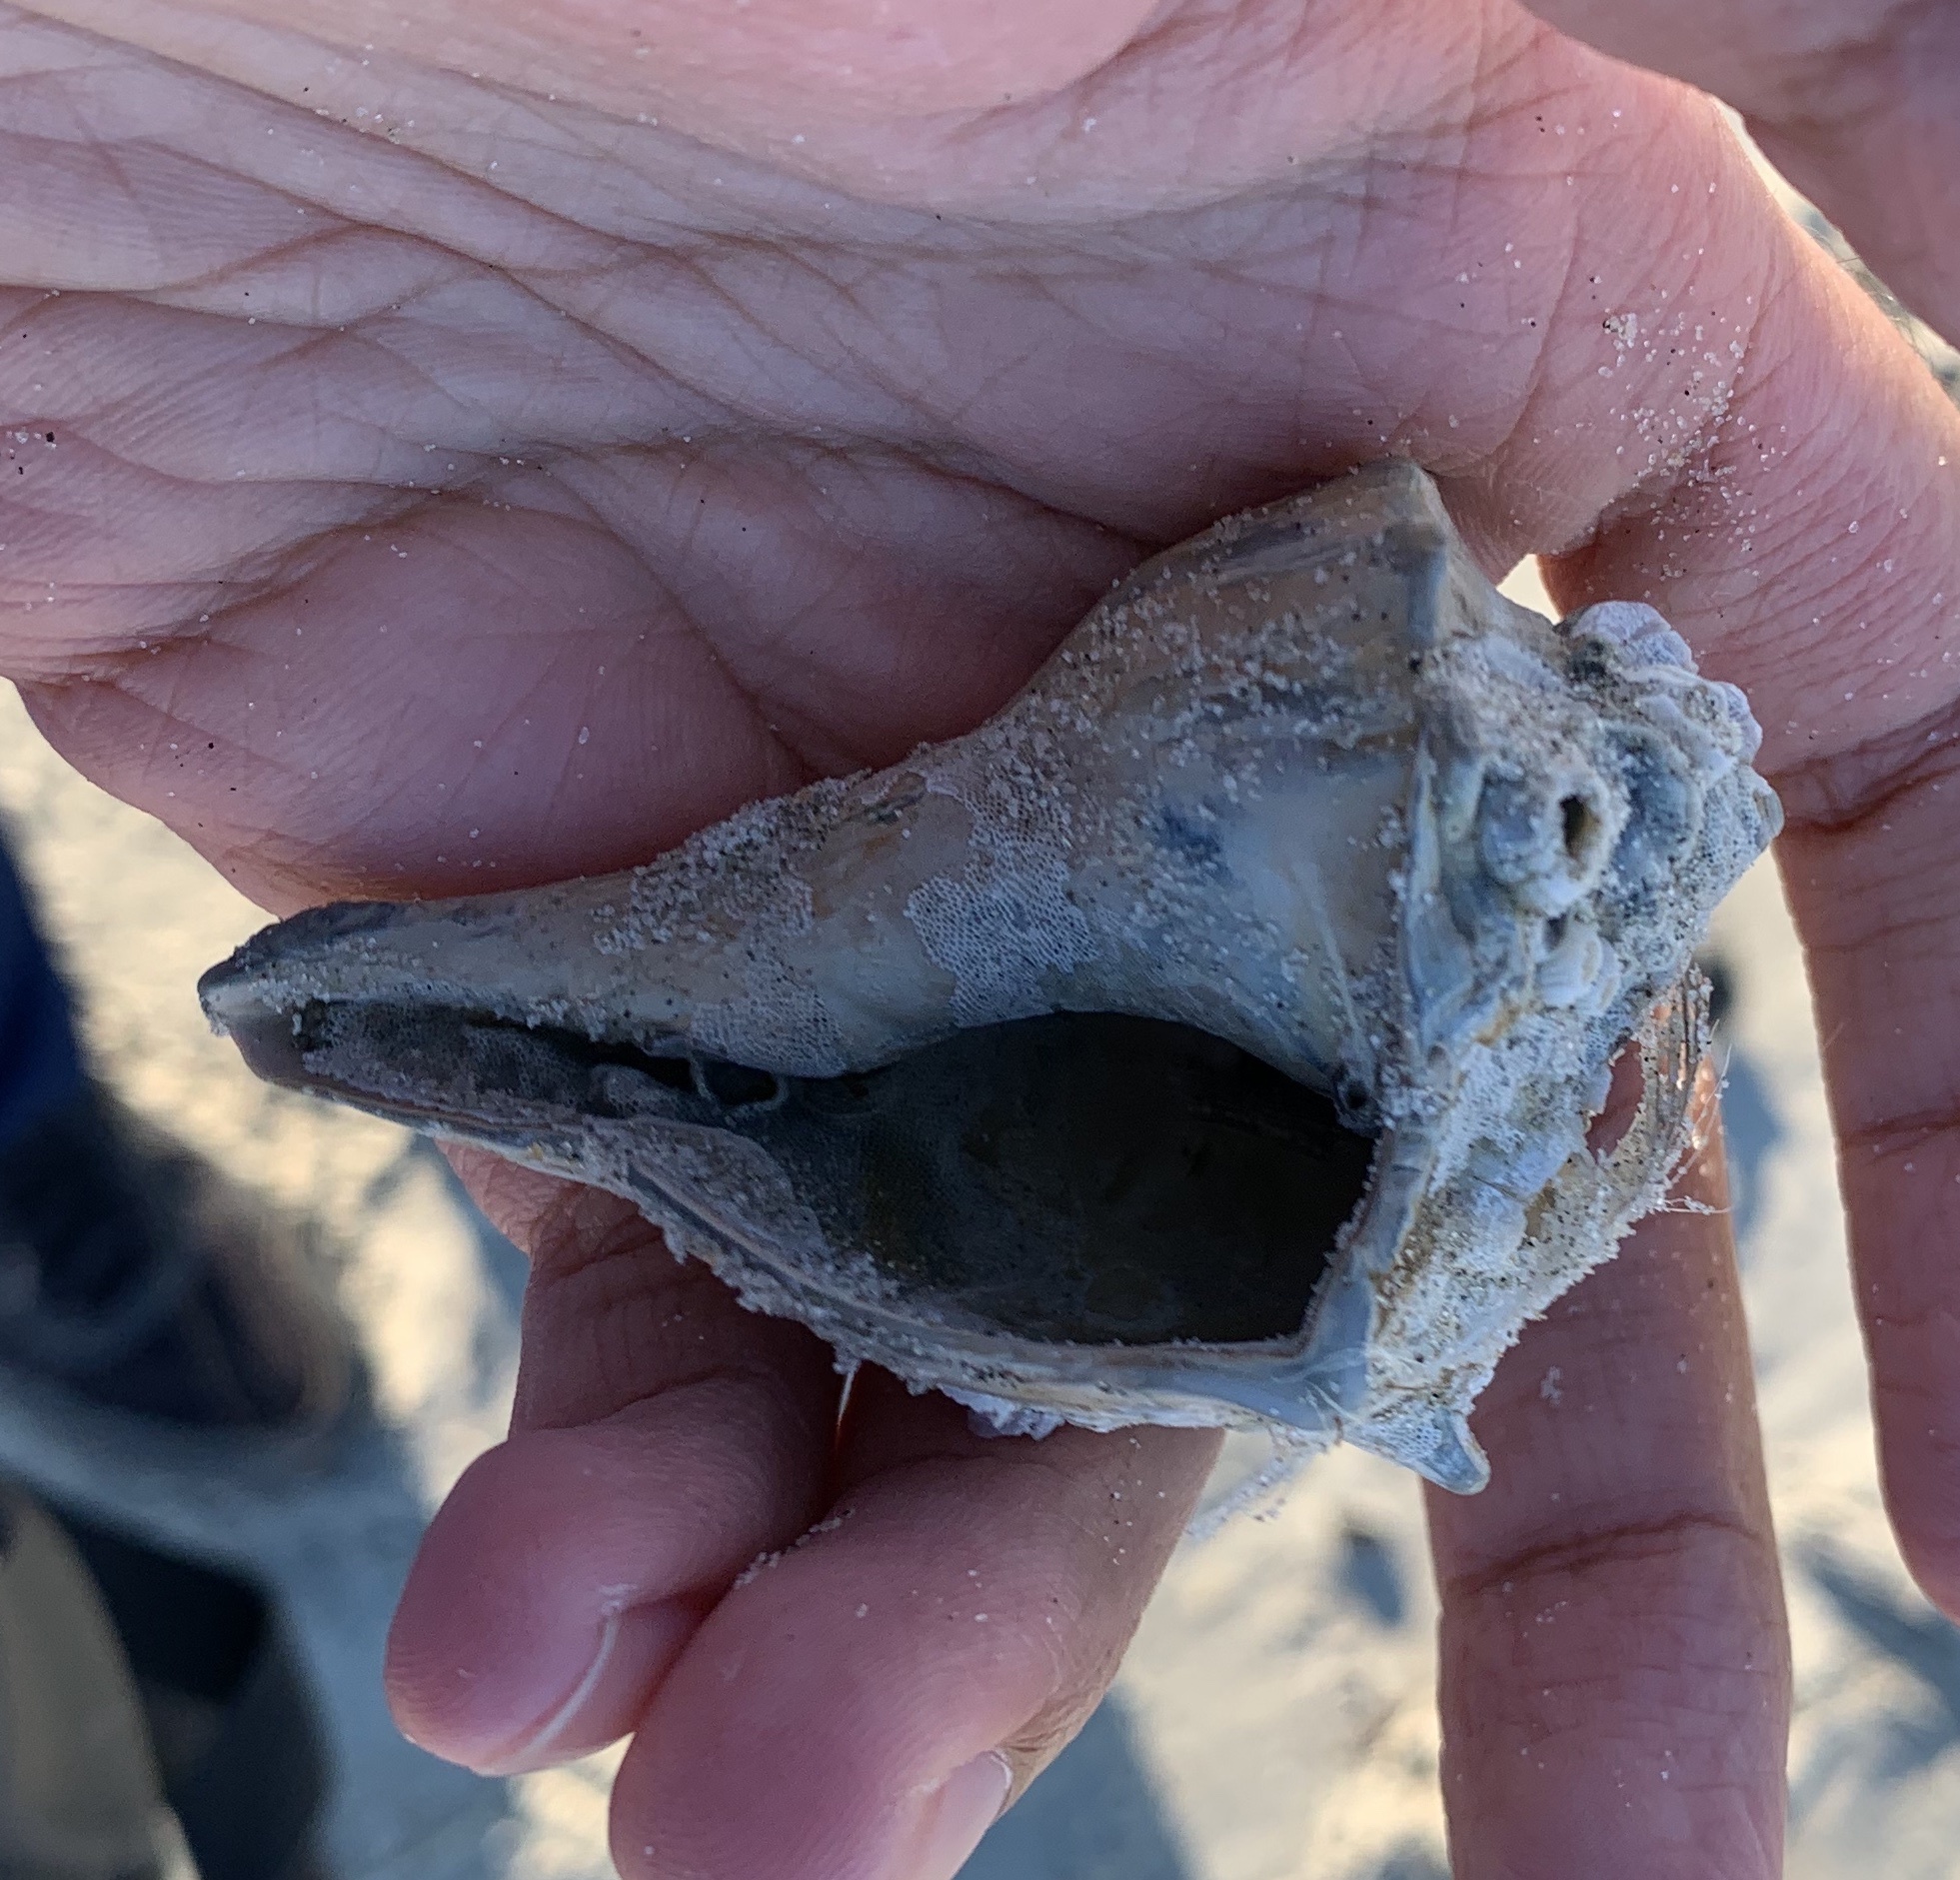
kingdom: Animalia
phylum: Mollusca
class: Gastropoda
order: Neogastropoda
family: Busyconidae
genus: Busycon
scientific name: Busycon carica
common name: Knobbed whelk
